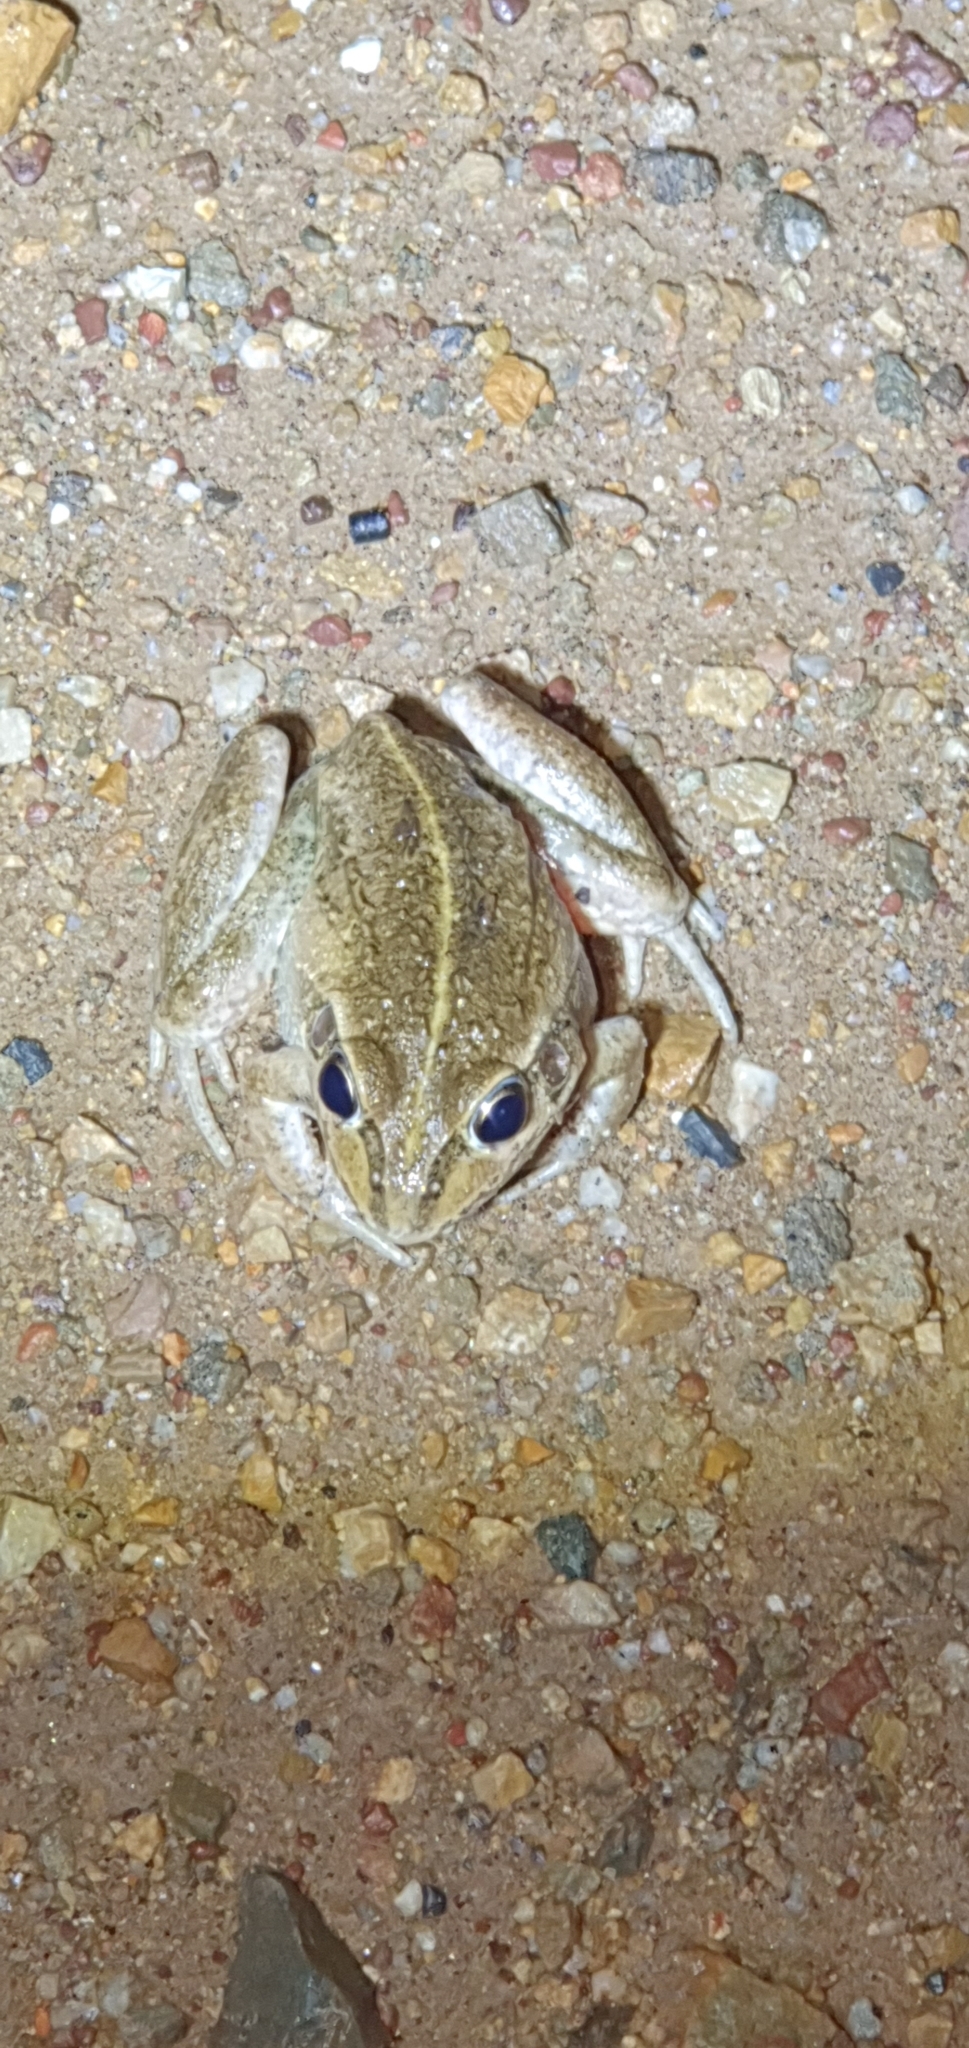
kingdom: Animalia
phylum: Chordata
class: Amphibia
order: Anura
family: Pelodryadidae
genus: Ranoidea
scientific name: Ranoidea alboguttata
